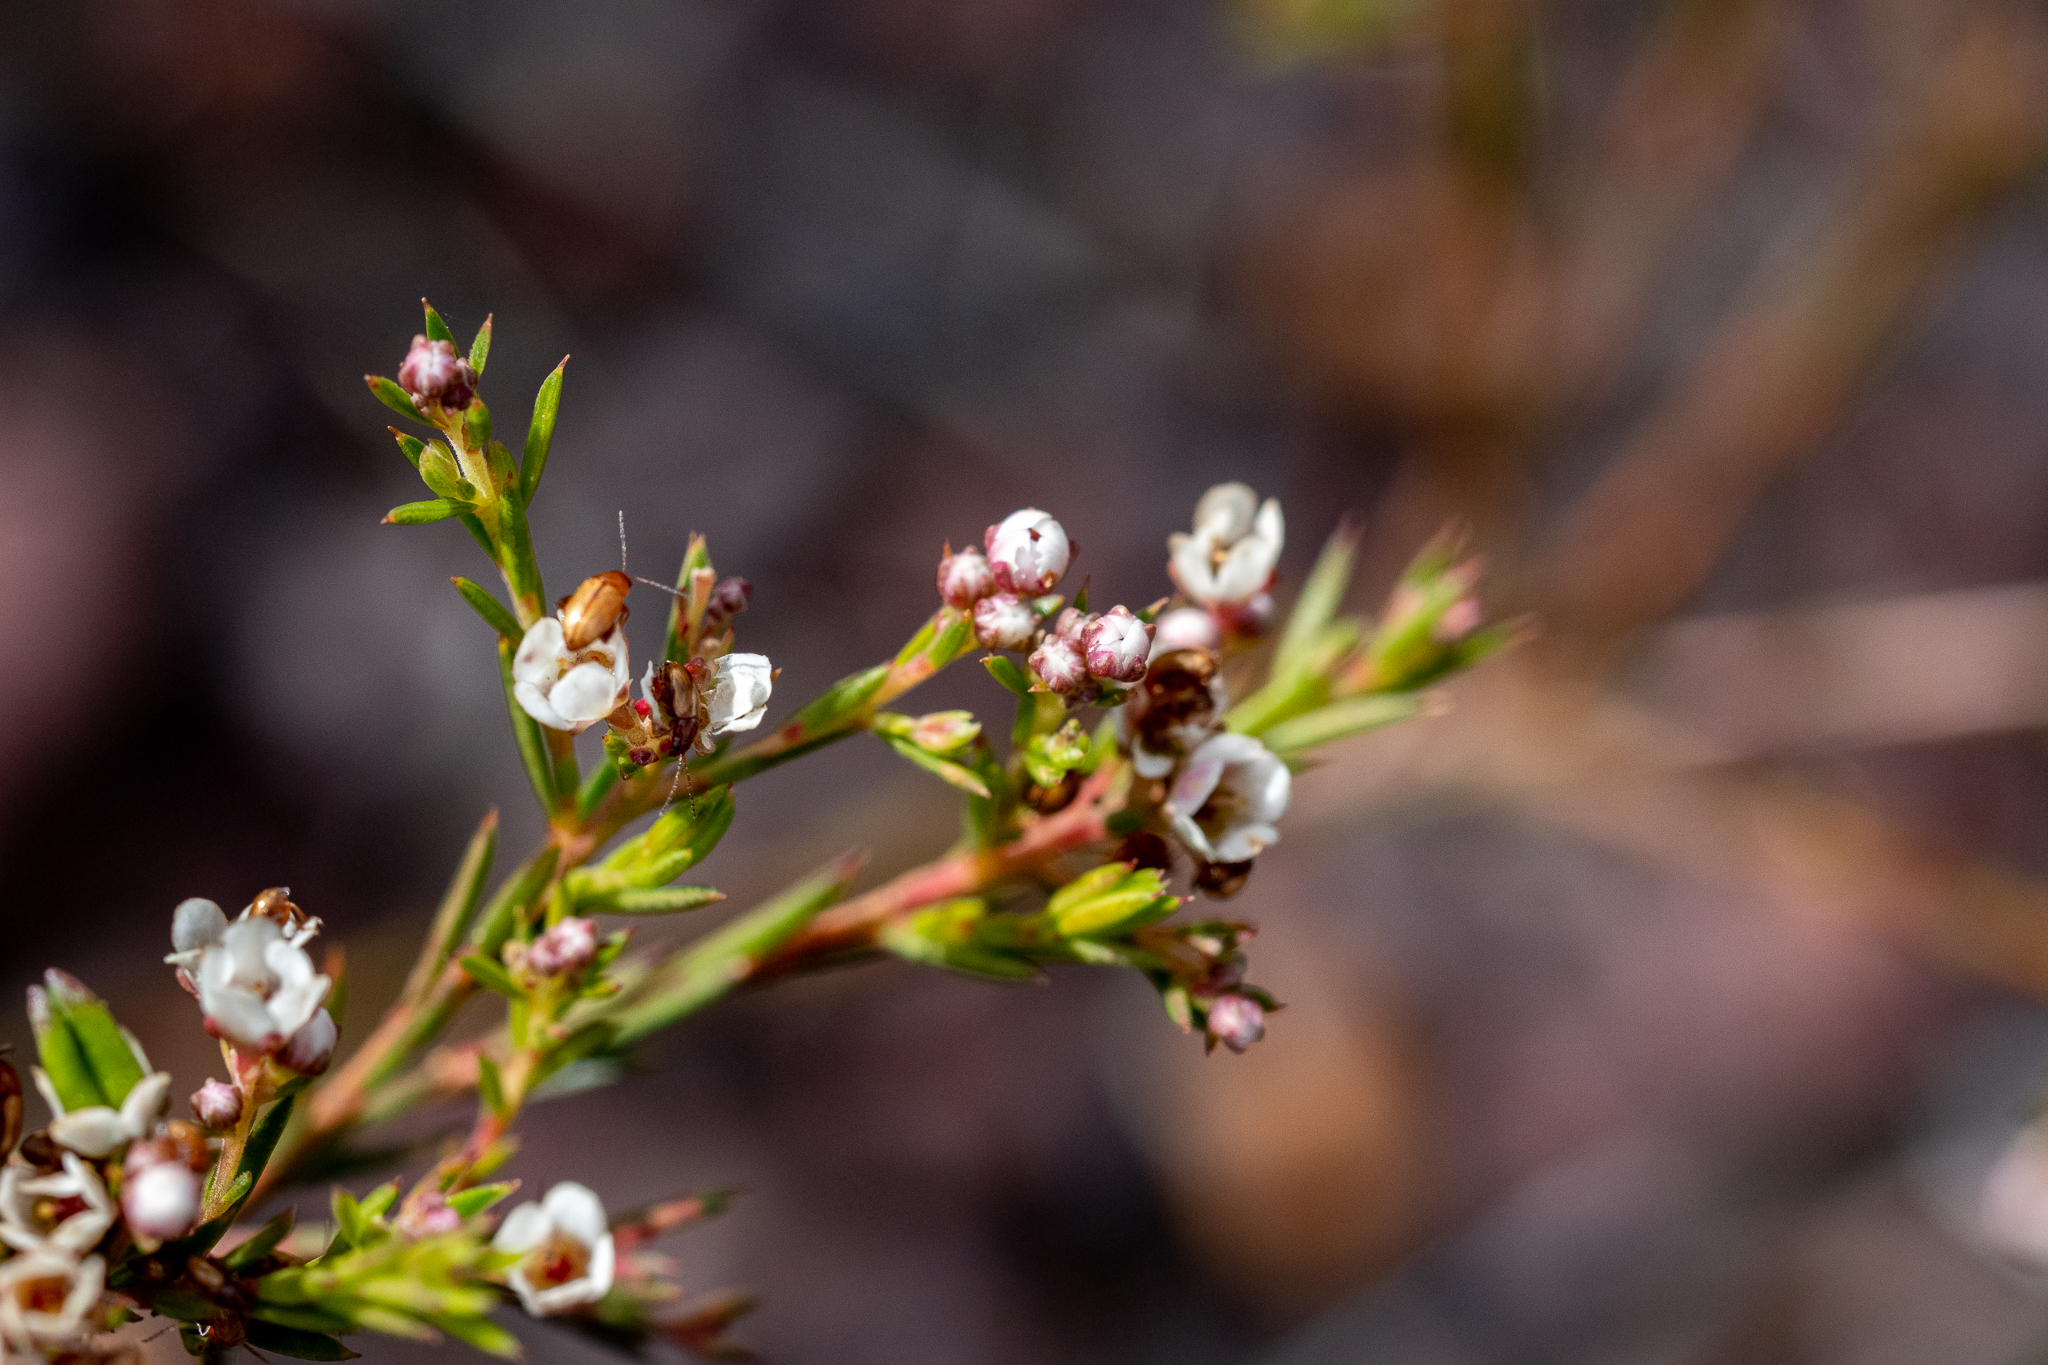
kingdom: Plantae
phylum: Tracheophyta
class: Magnoliopsida
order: Sapindales
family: Rutaceae
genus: Diosma
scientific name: Diosma hirsuta
